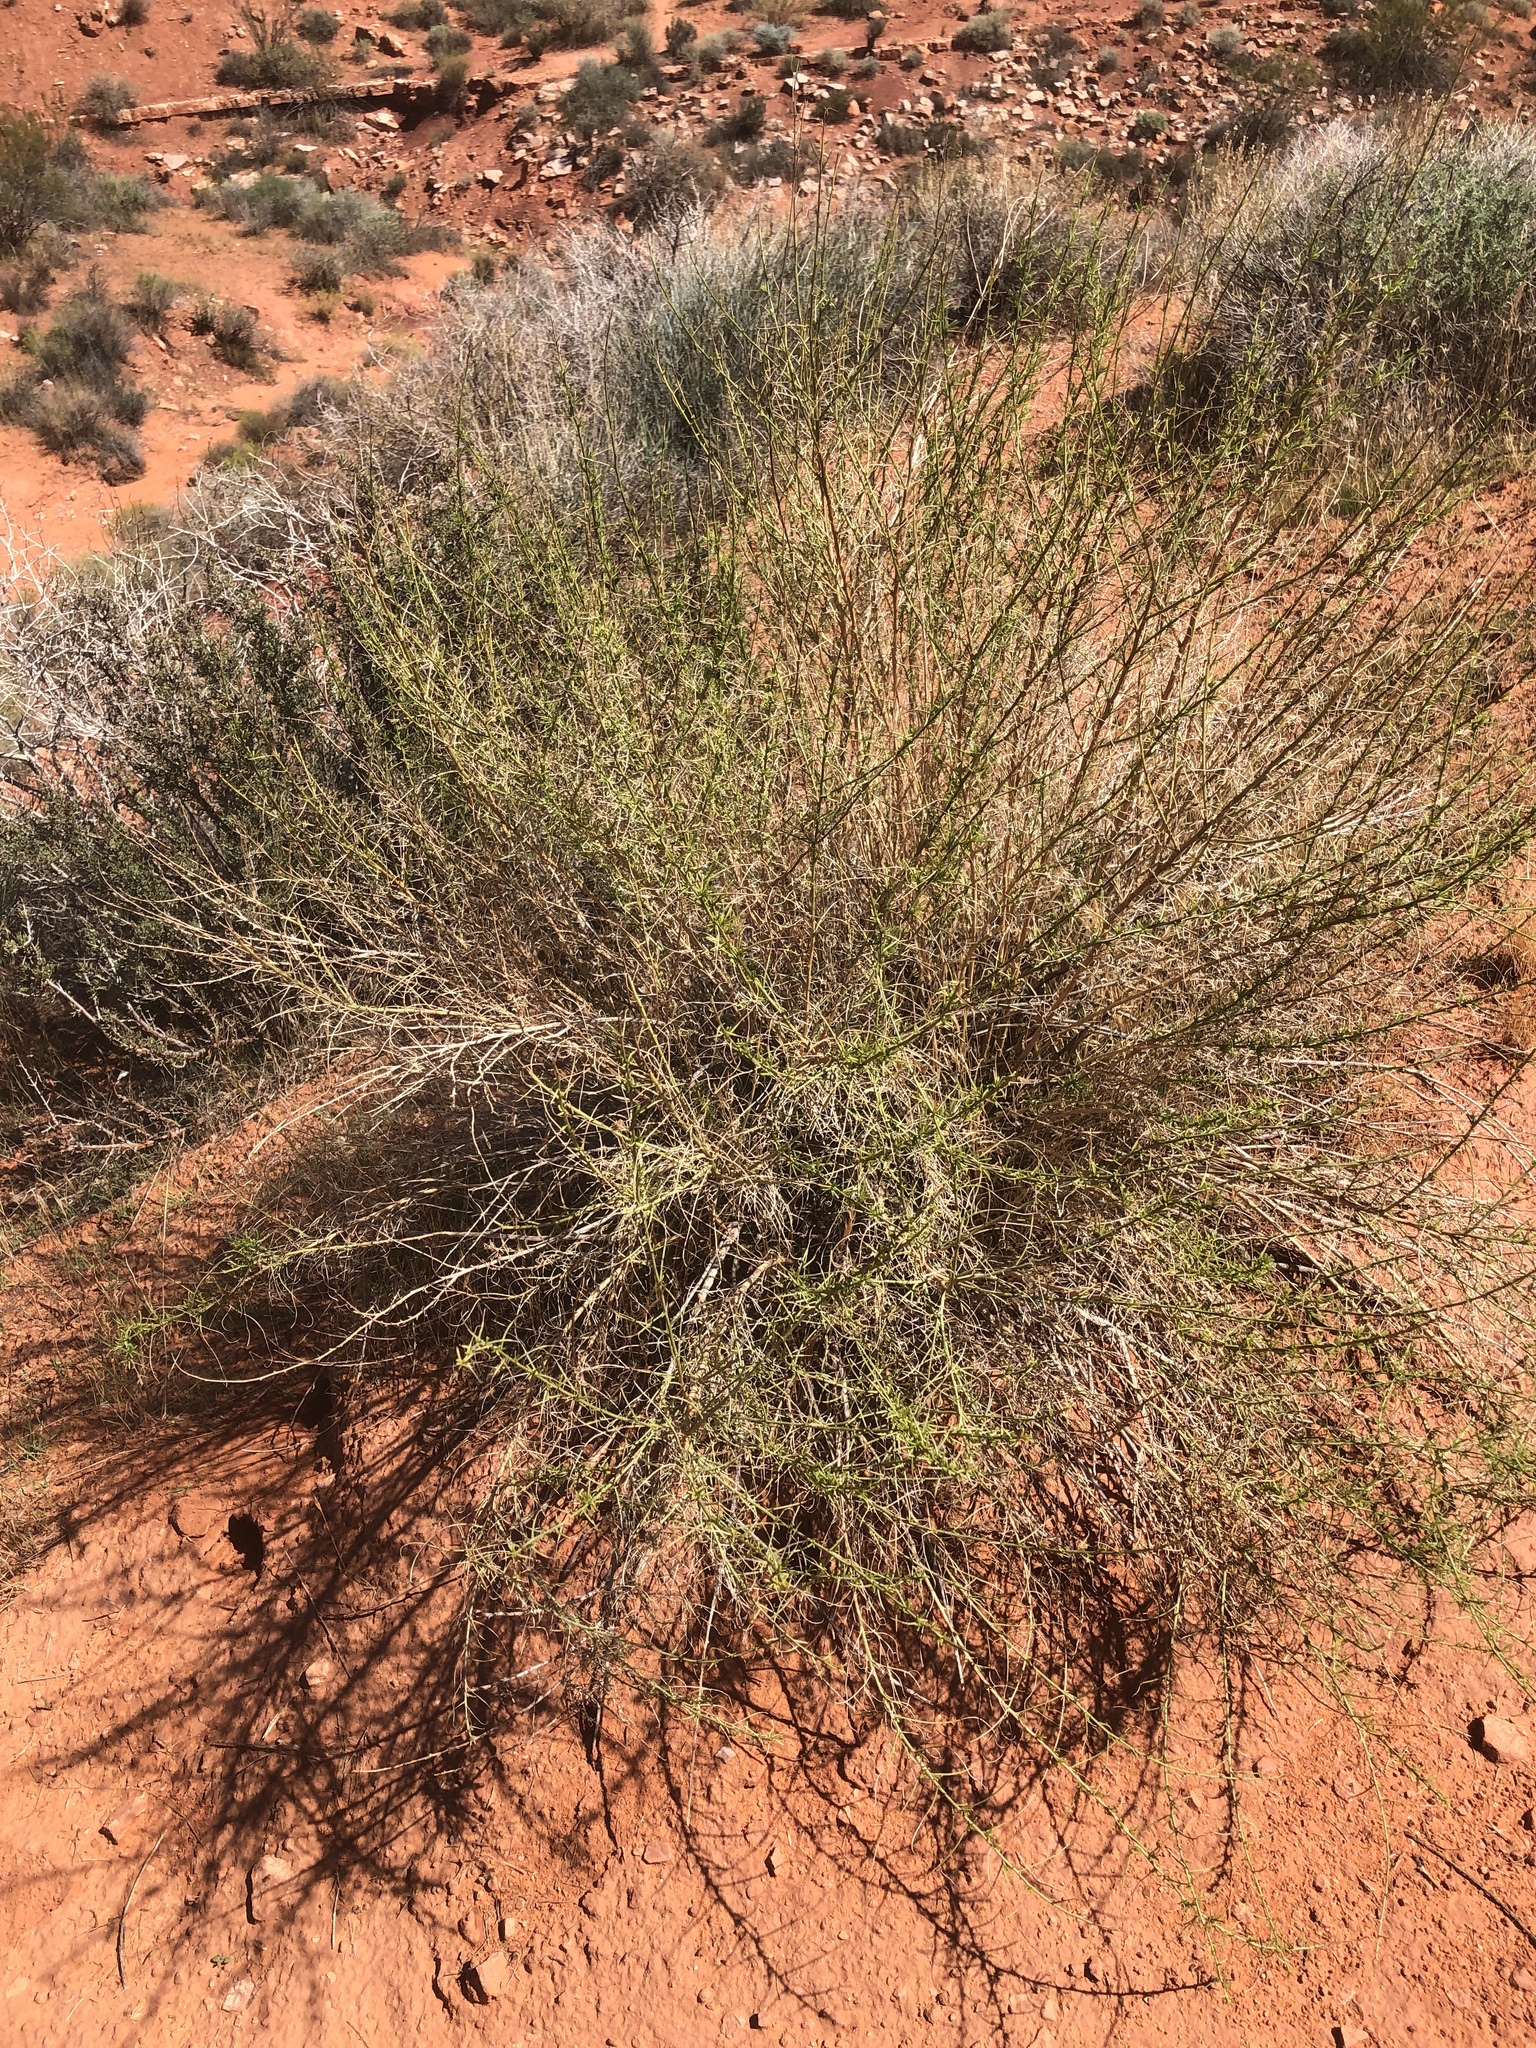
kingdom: Plantae
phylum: Tracheophyta
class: Magnoliopsida
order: Asterales
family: Asteraceae
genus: Ambrosia
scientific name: Ambrosia salsola
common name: Burrobrush
